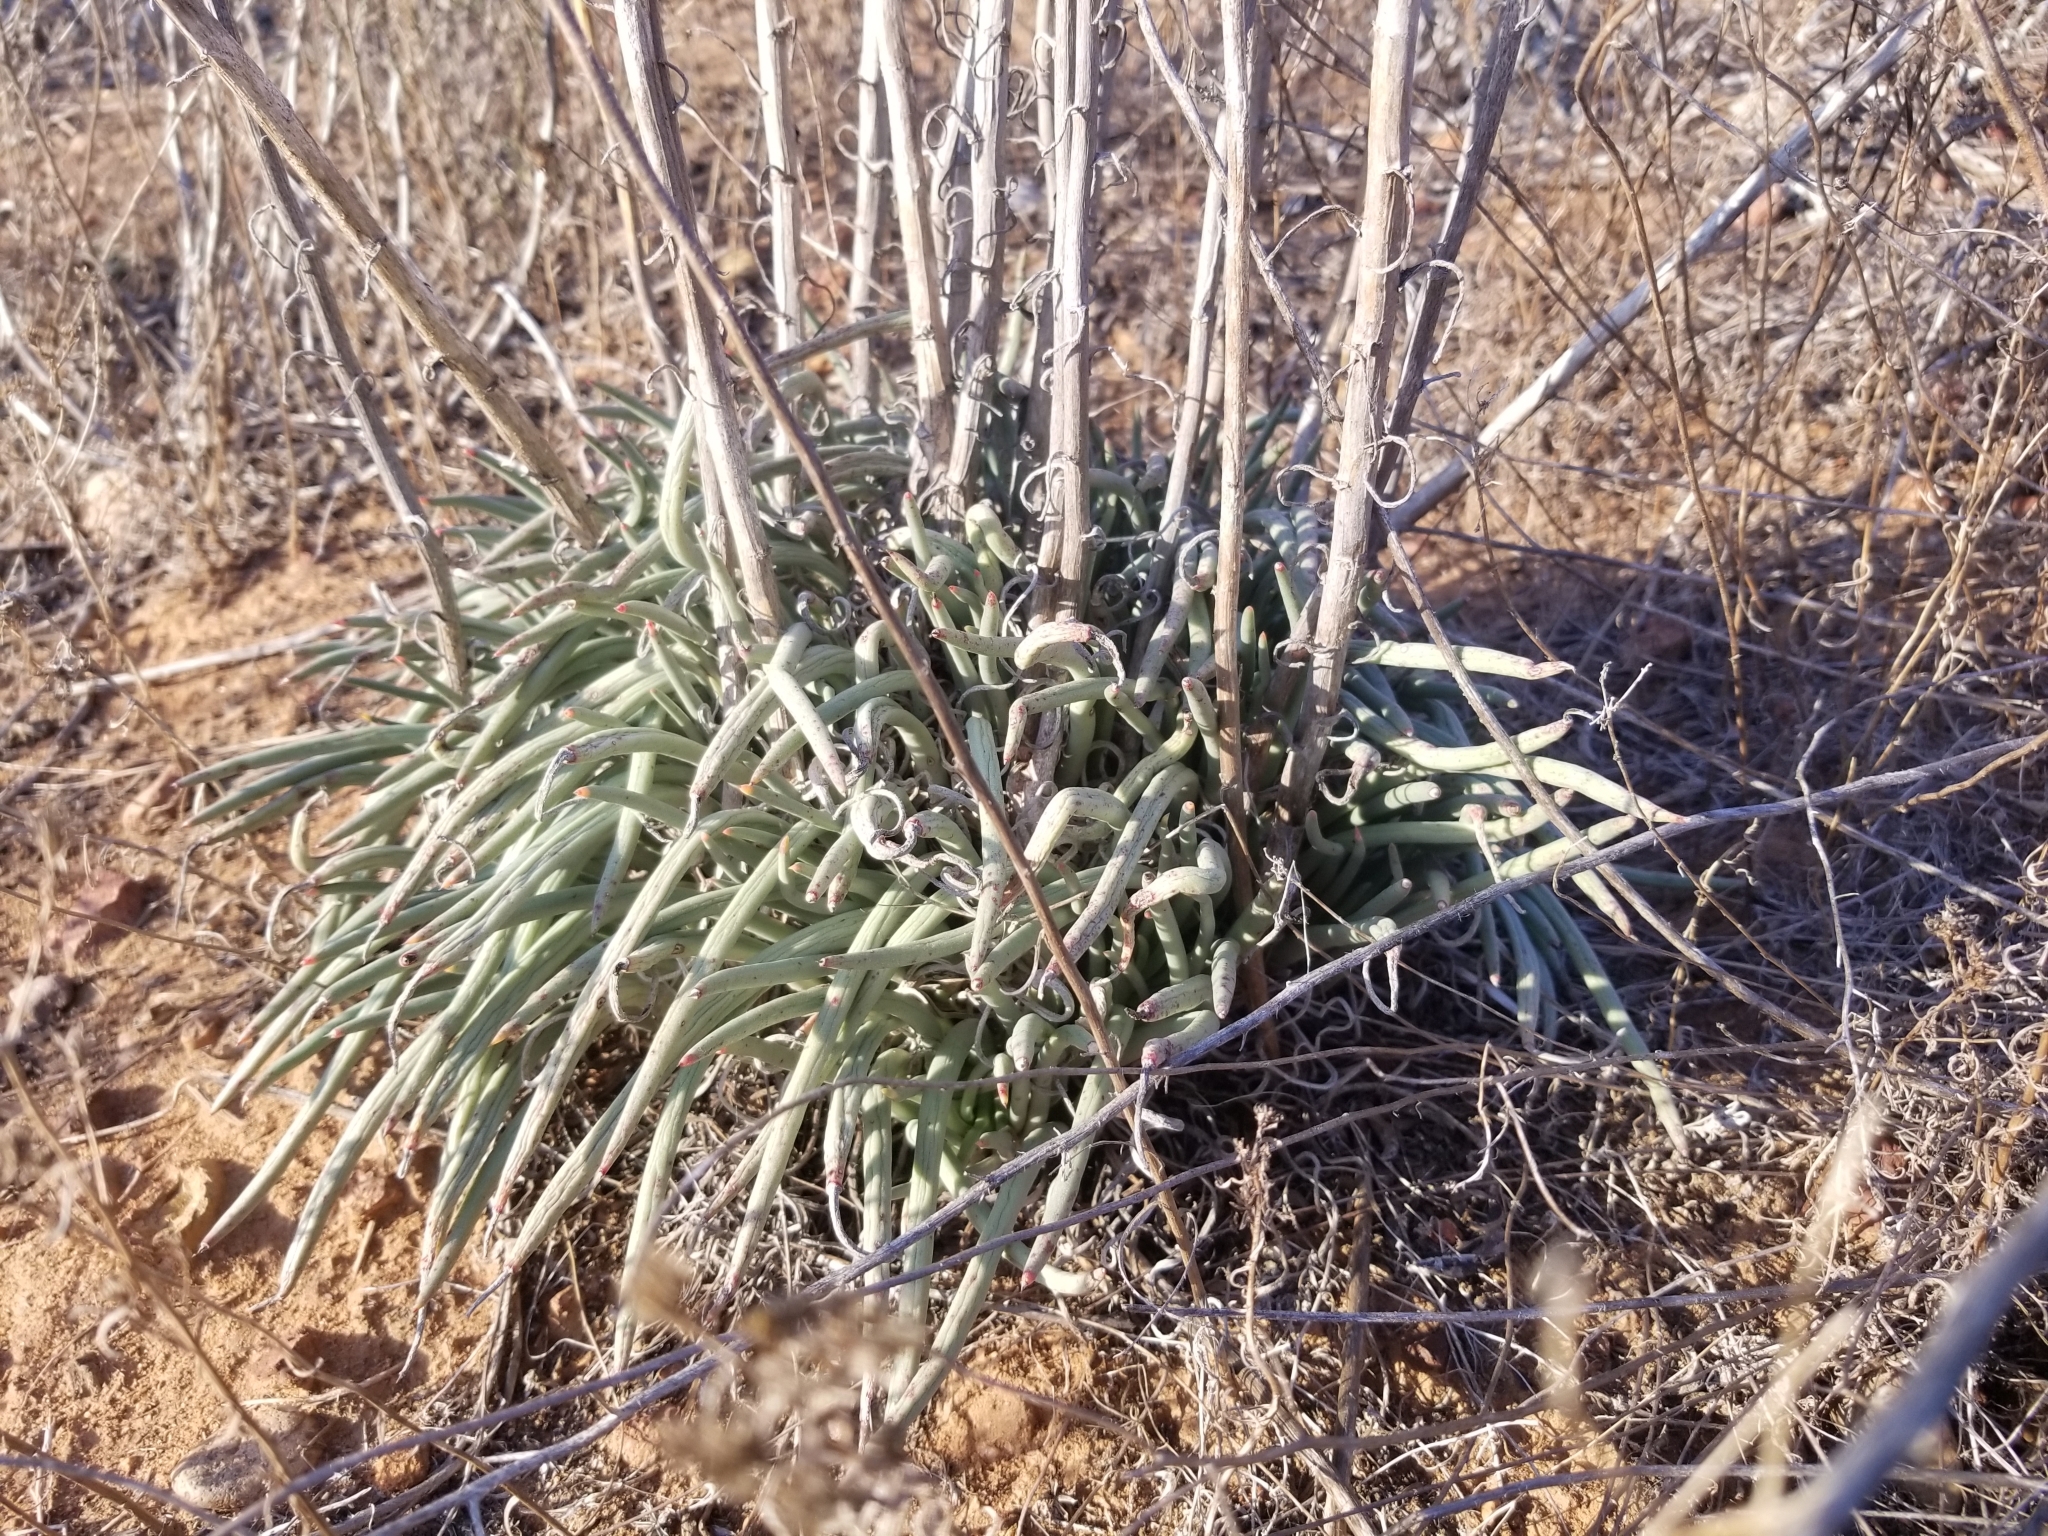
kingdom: Plantae
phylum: Tracheophyta
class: Magnoliopsida
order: Saxifragales
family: Crassulaceae
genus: Dudleya
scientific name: Dudleya edulis
